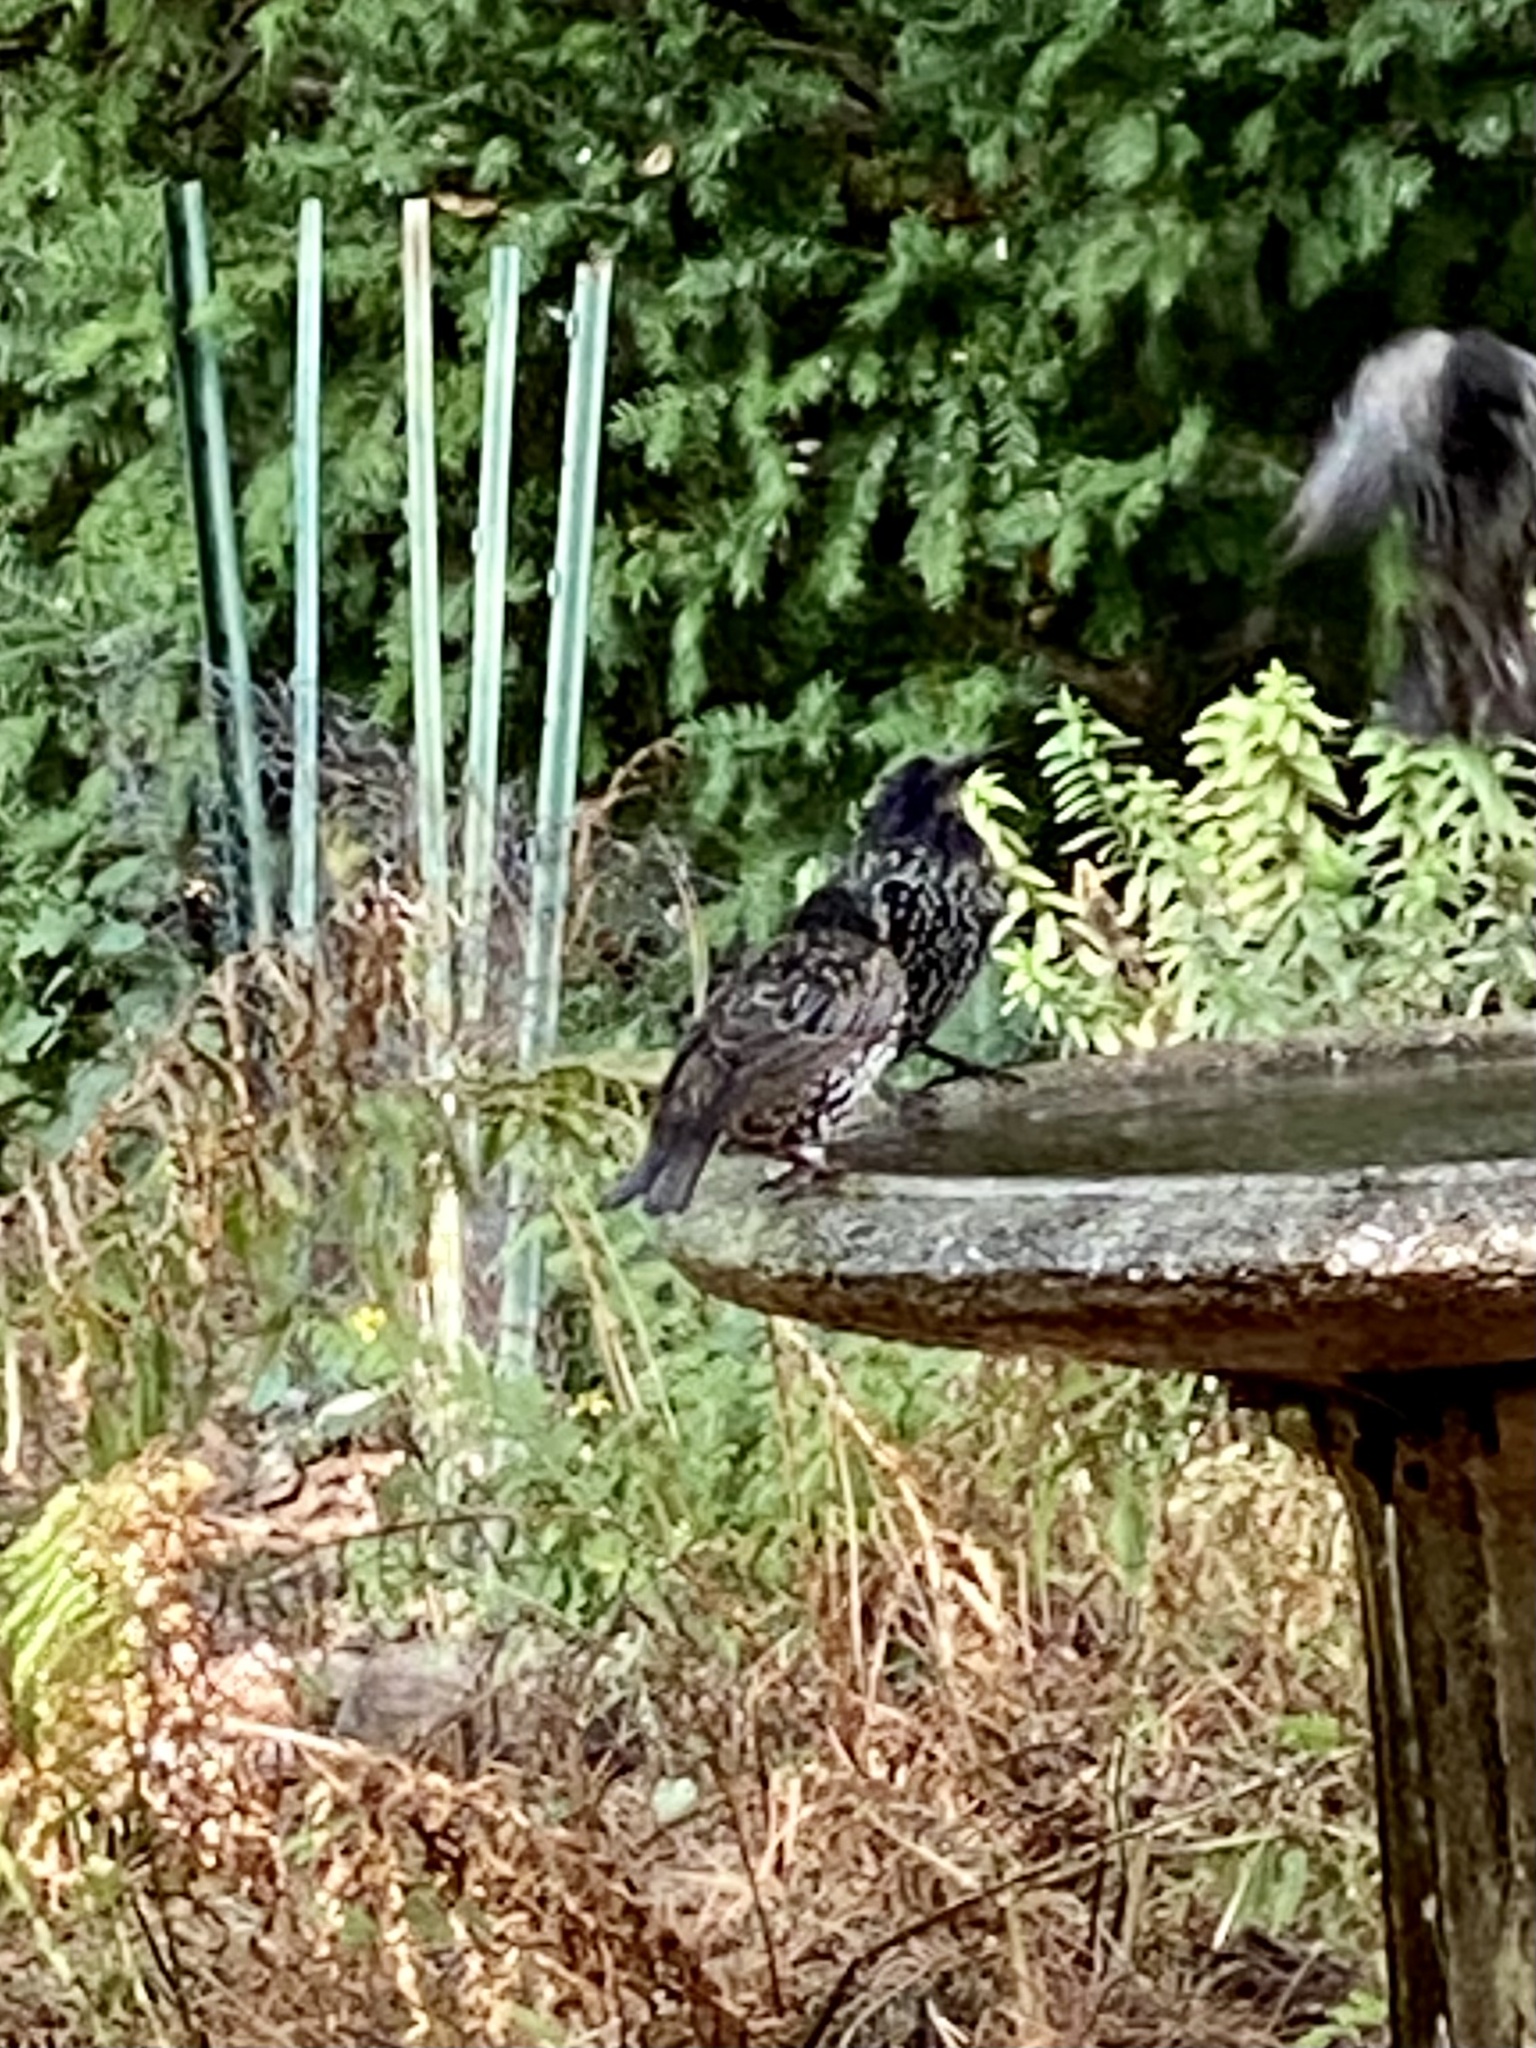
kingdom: Animalia
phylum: Chordata
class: Aves
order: Passeriformes
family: Sturnidae
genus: Sturnus
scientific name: Sturnus vulgaris
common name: Common starling
